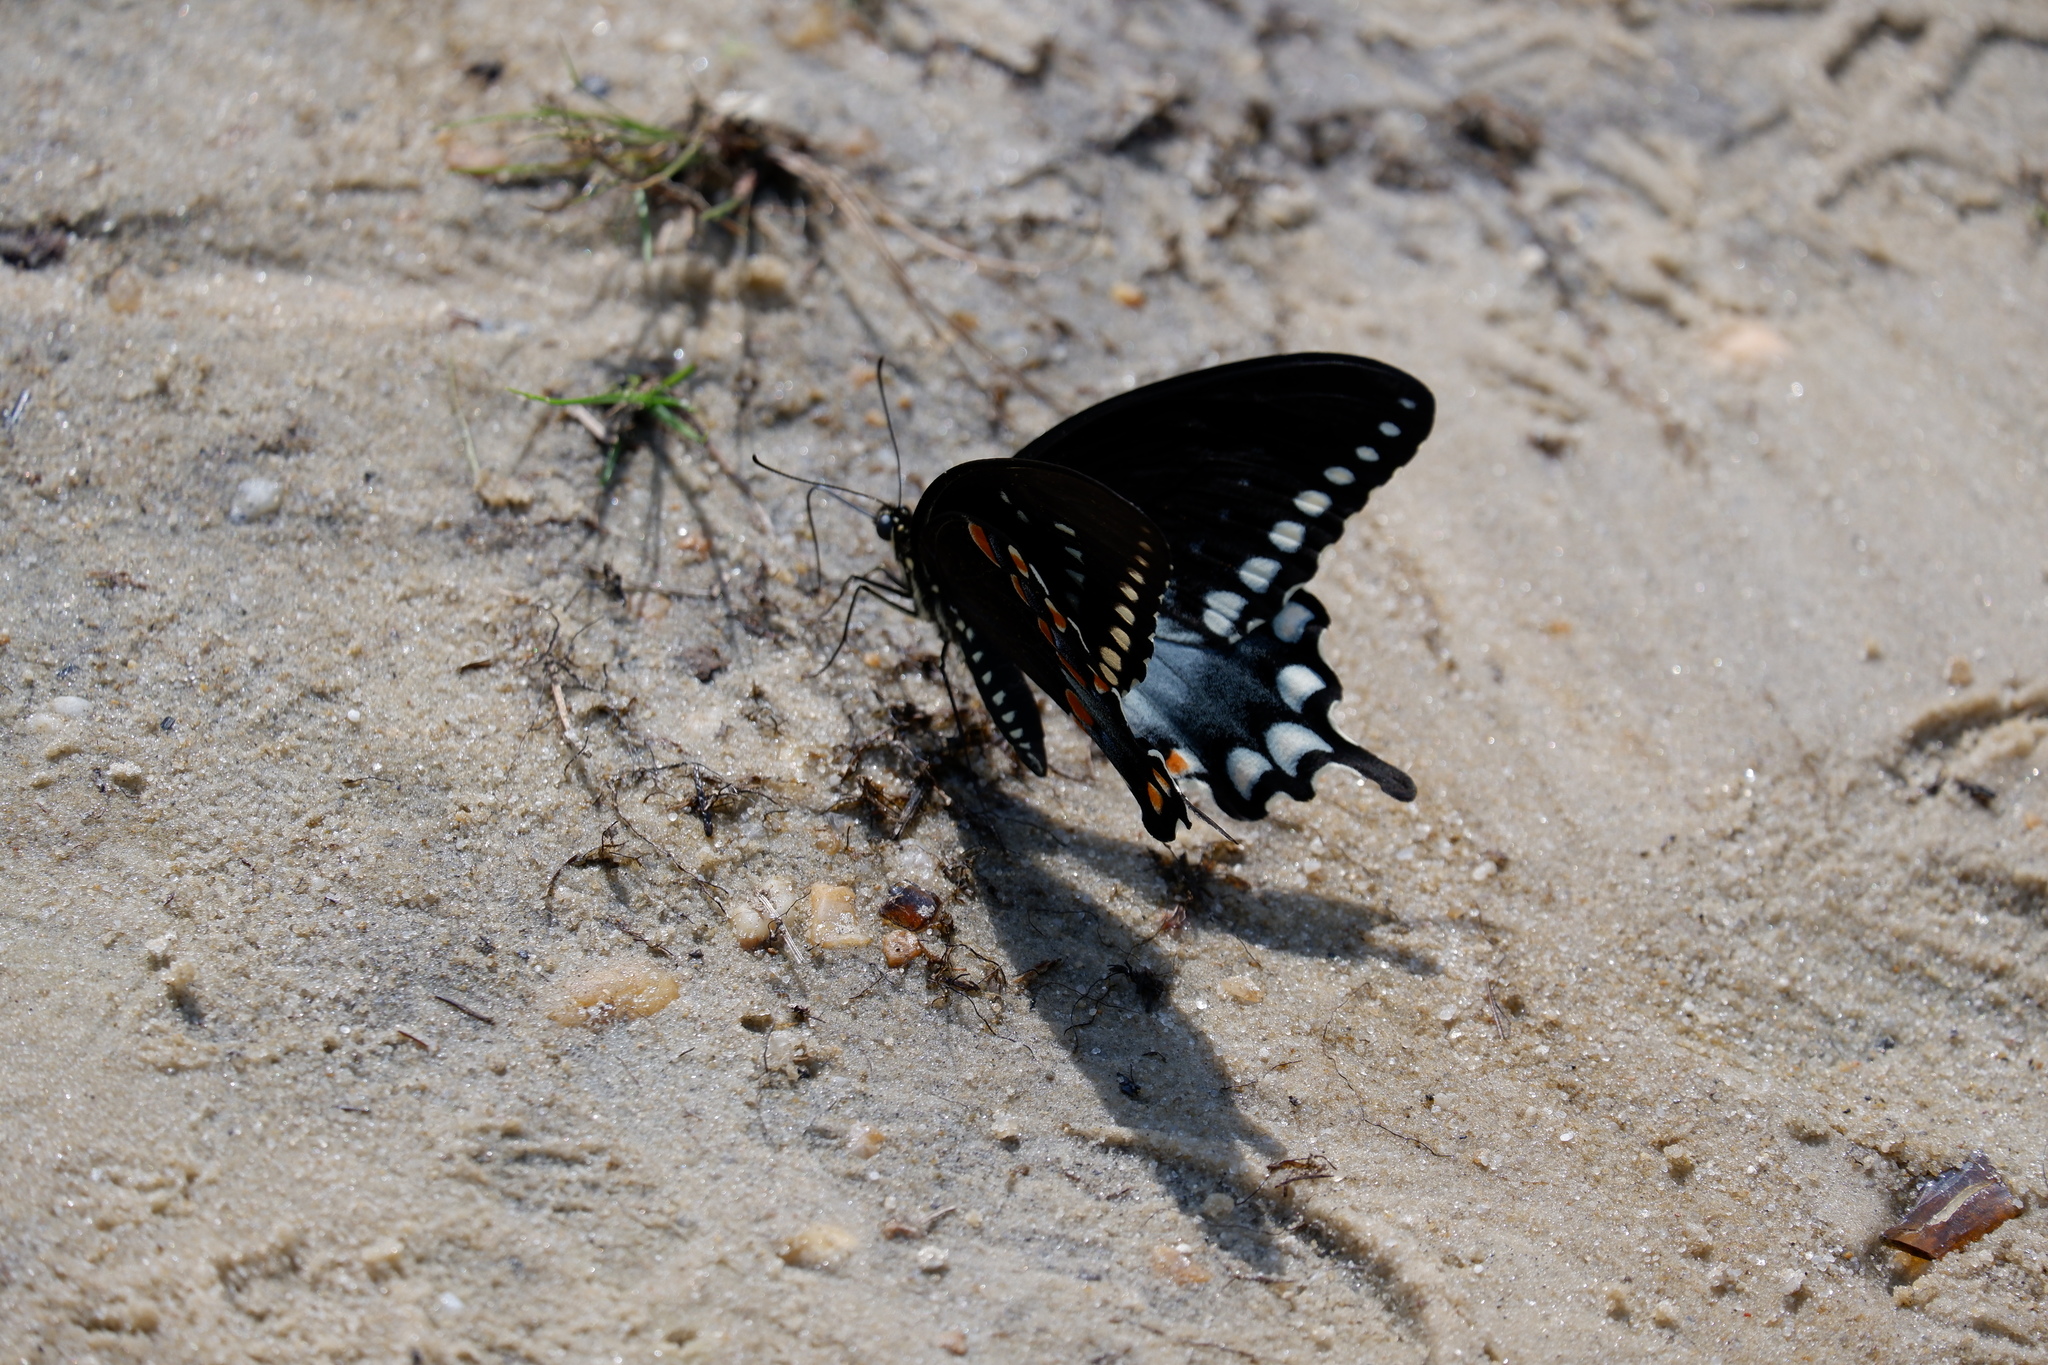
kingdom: Animalia
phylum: Arthropoda
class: Insecta
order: Lepidoptera
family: Papilionidae
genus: Papilio
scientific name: Papilio troilus
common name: Spicebush swallowtail
